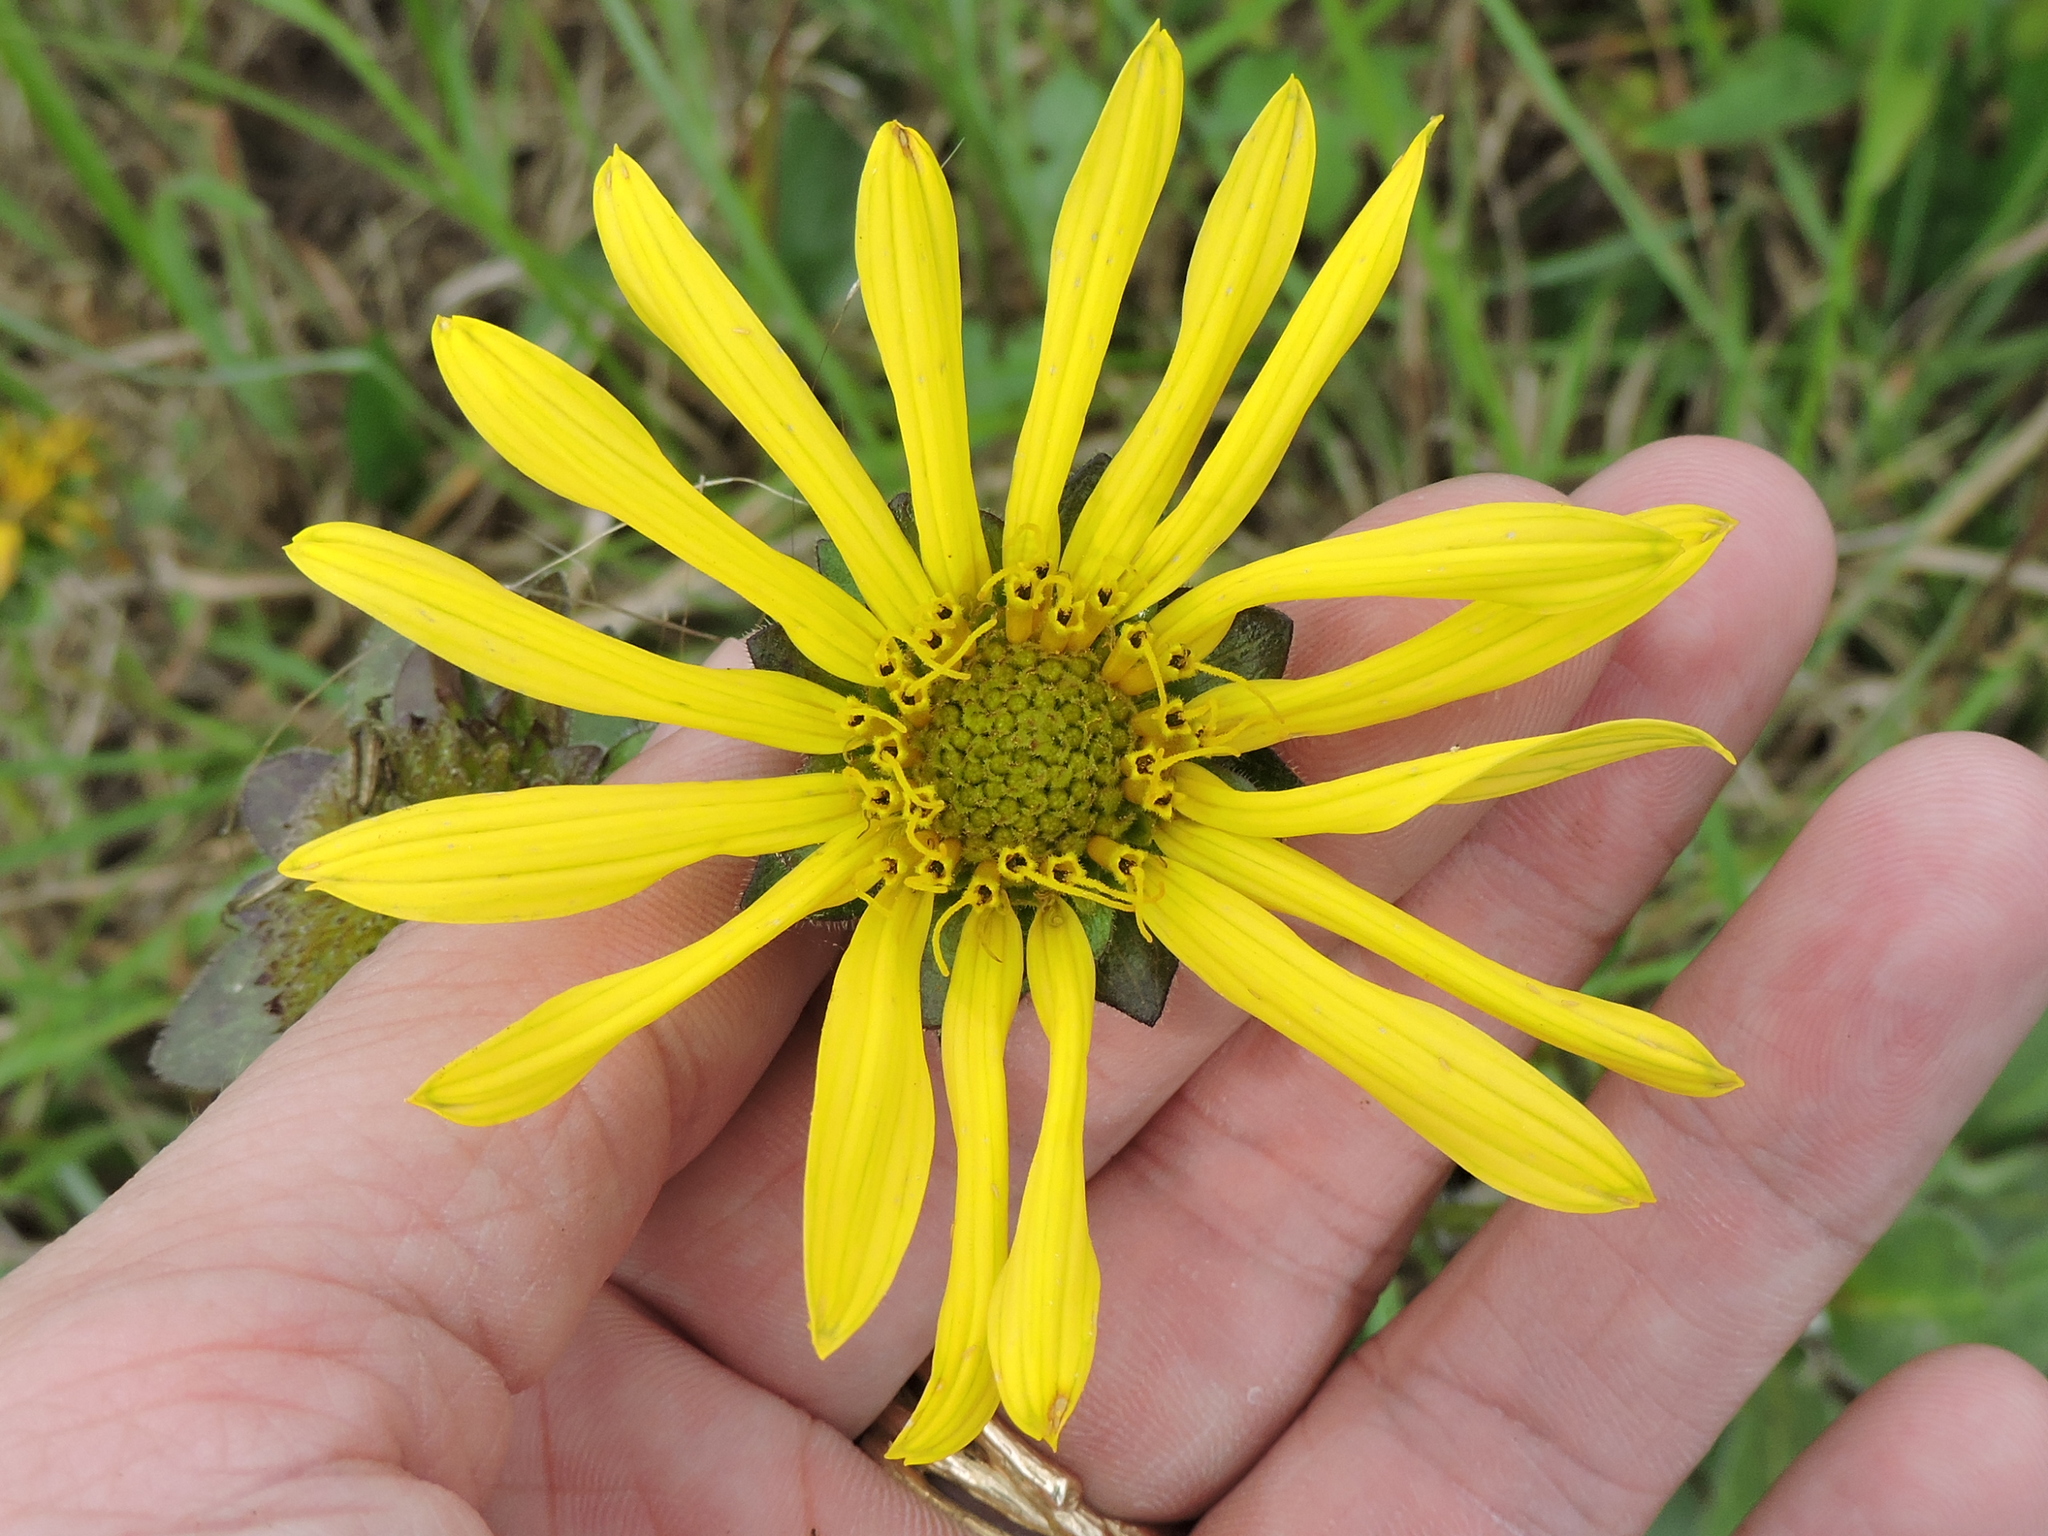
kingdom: Plantae
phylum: Tracheophyta
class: Magnoliopsida
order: Asterales
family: Asteraceae
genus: Silphium
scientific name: Silphium radula
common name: Roughleaf rosinweed
